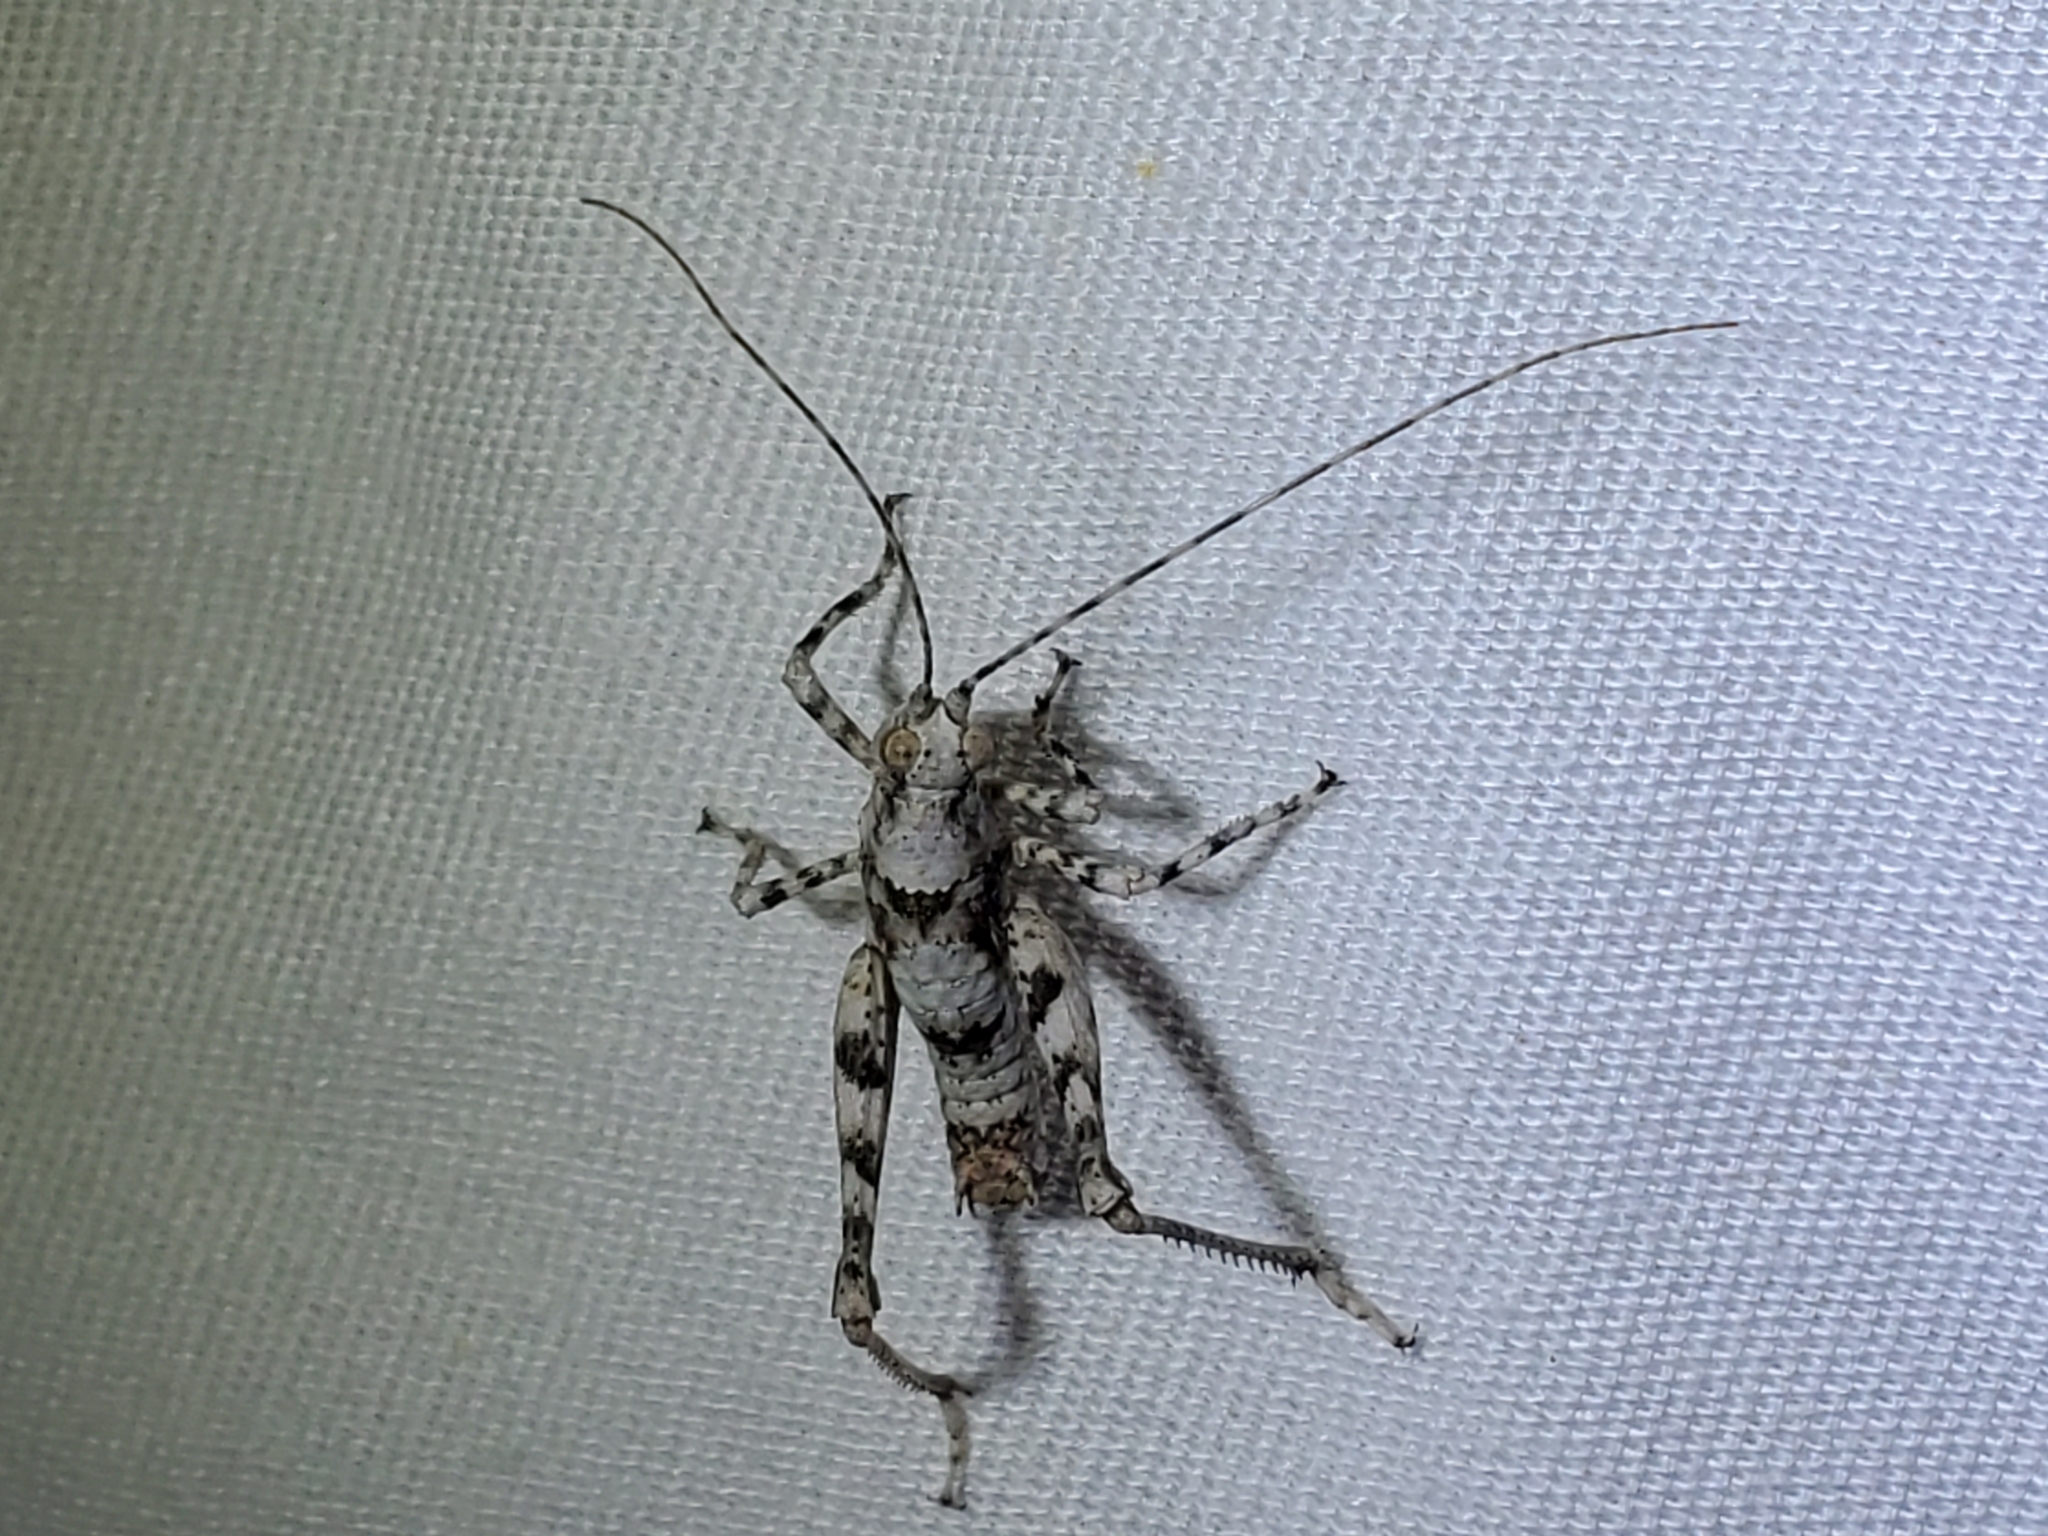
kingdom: Animalia
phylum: Arthropoda
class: Insecta
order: Orthoptera
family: Tanaoceridae
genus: Tanaocerus
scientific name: Tanaocerus koebelei
